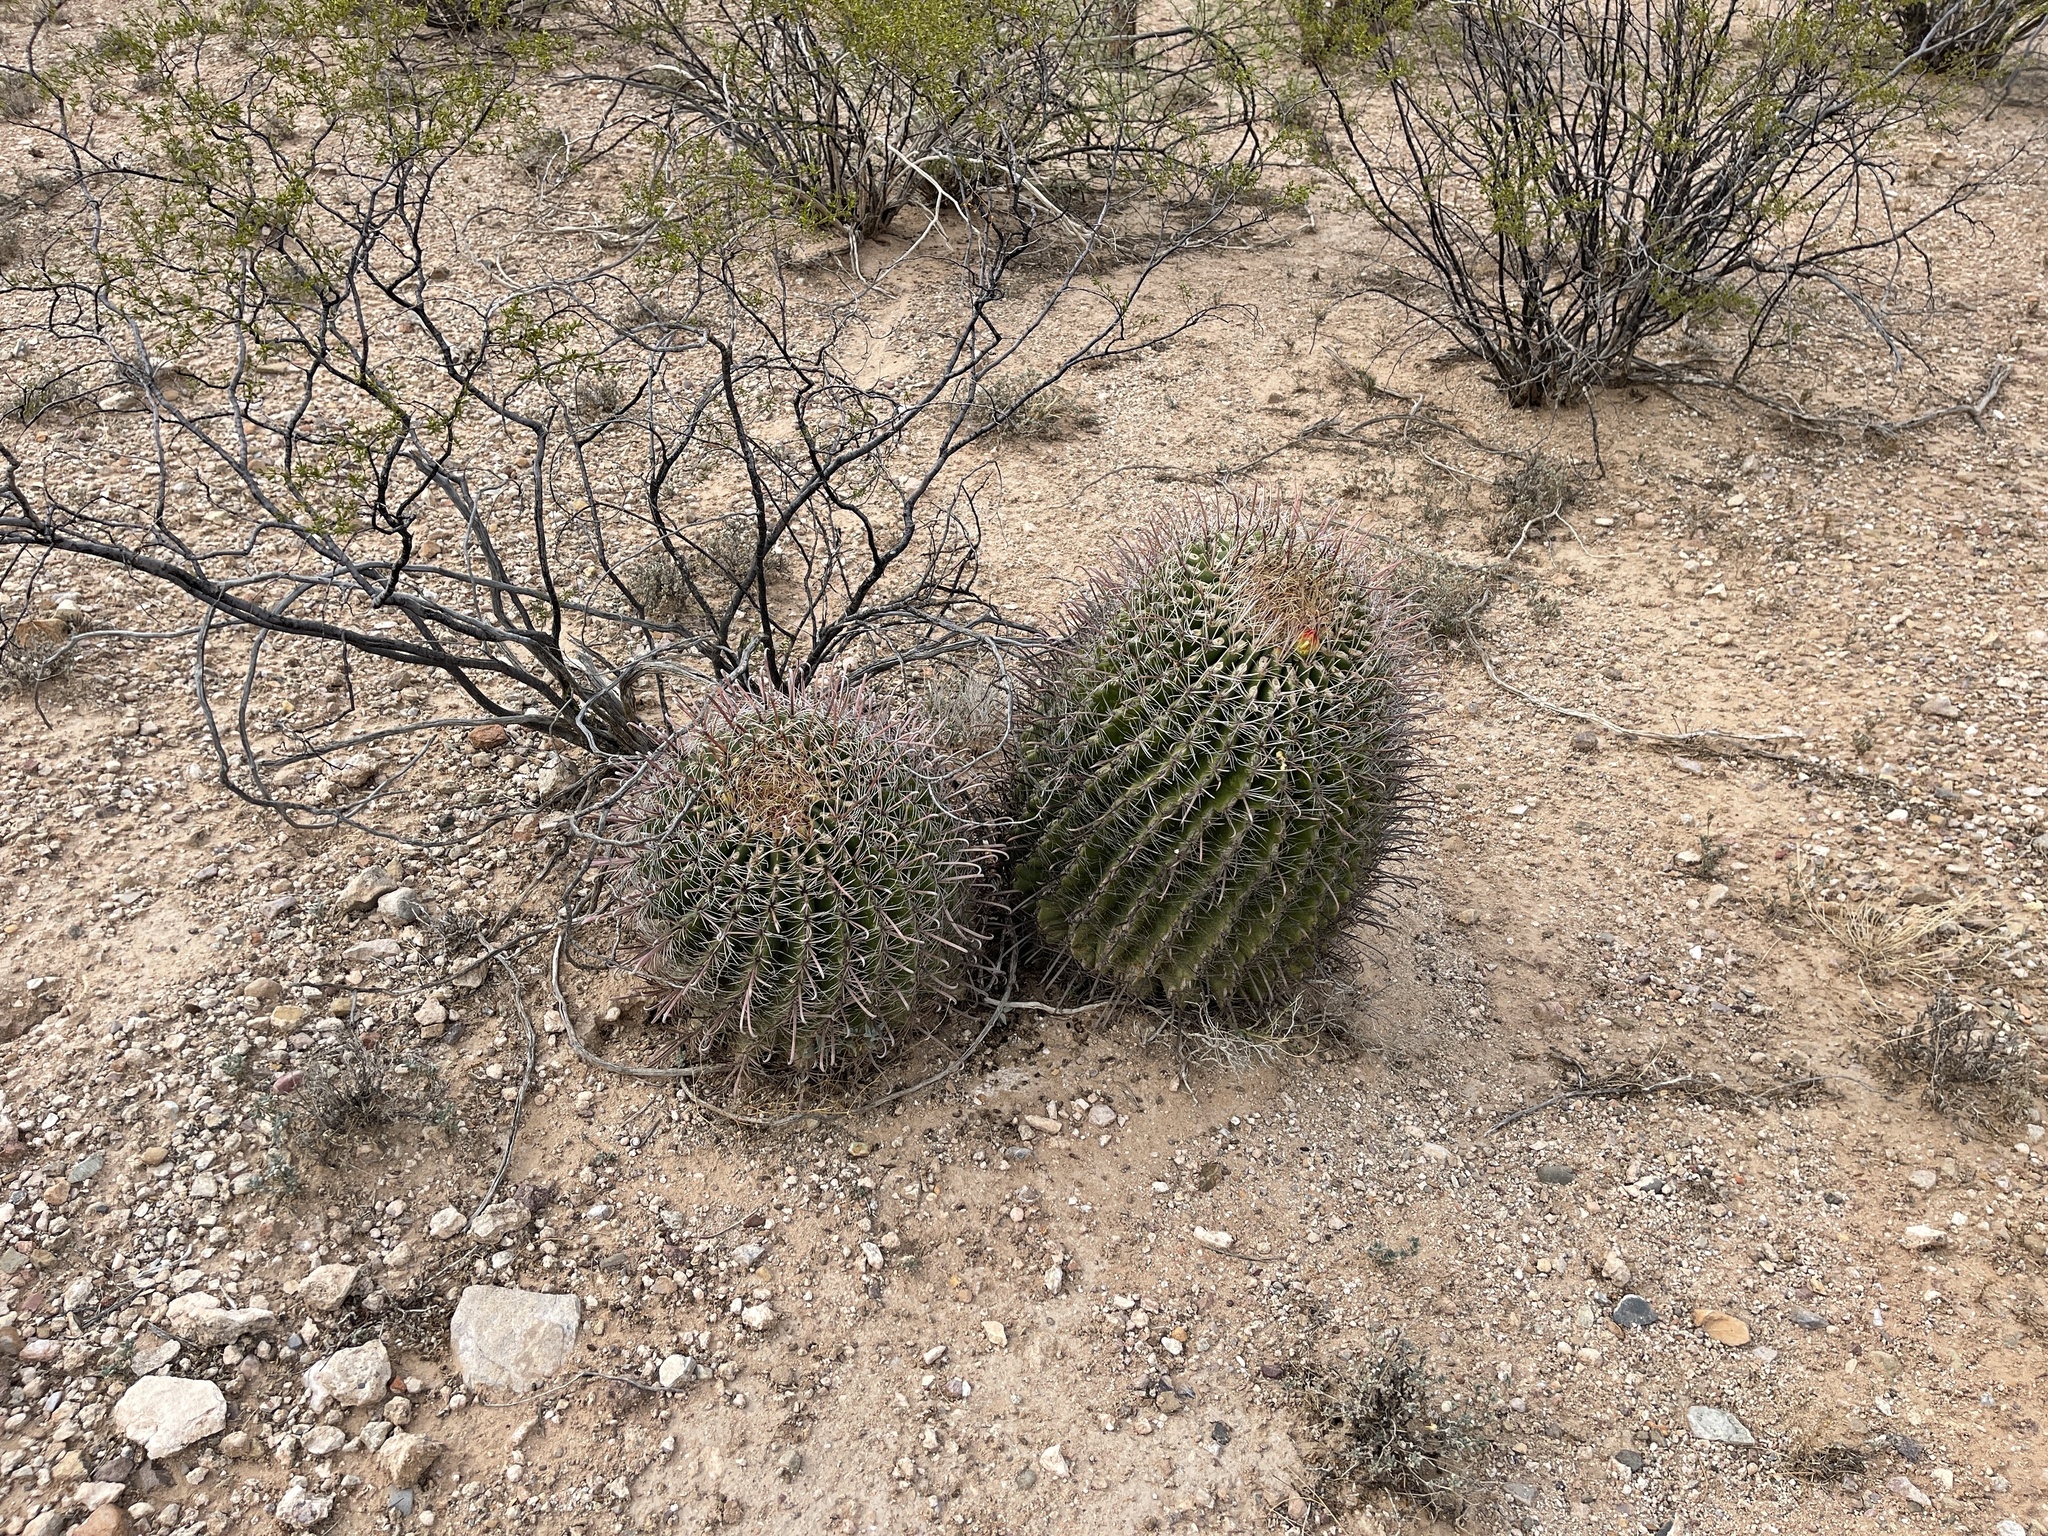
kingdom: Plantae
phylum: Tracheophyta
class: Magnoliopsida
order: Caryophyllales
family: Cactaceae
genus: Ferocactus
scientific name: Ferocactus wislizeni
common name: Candy barrel cactus
